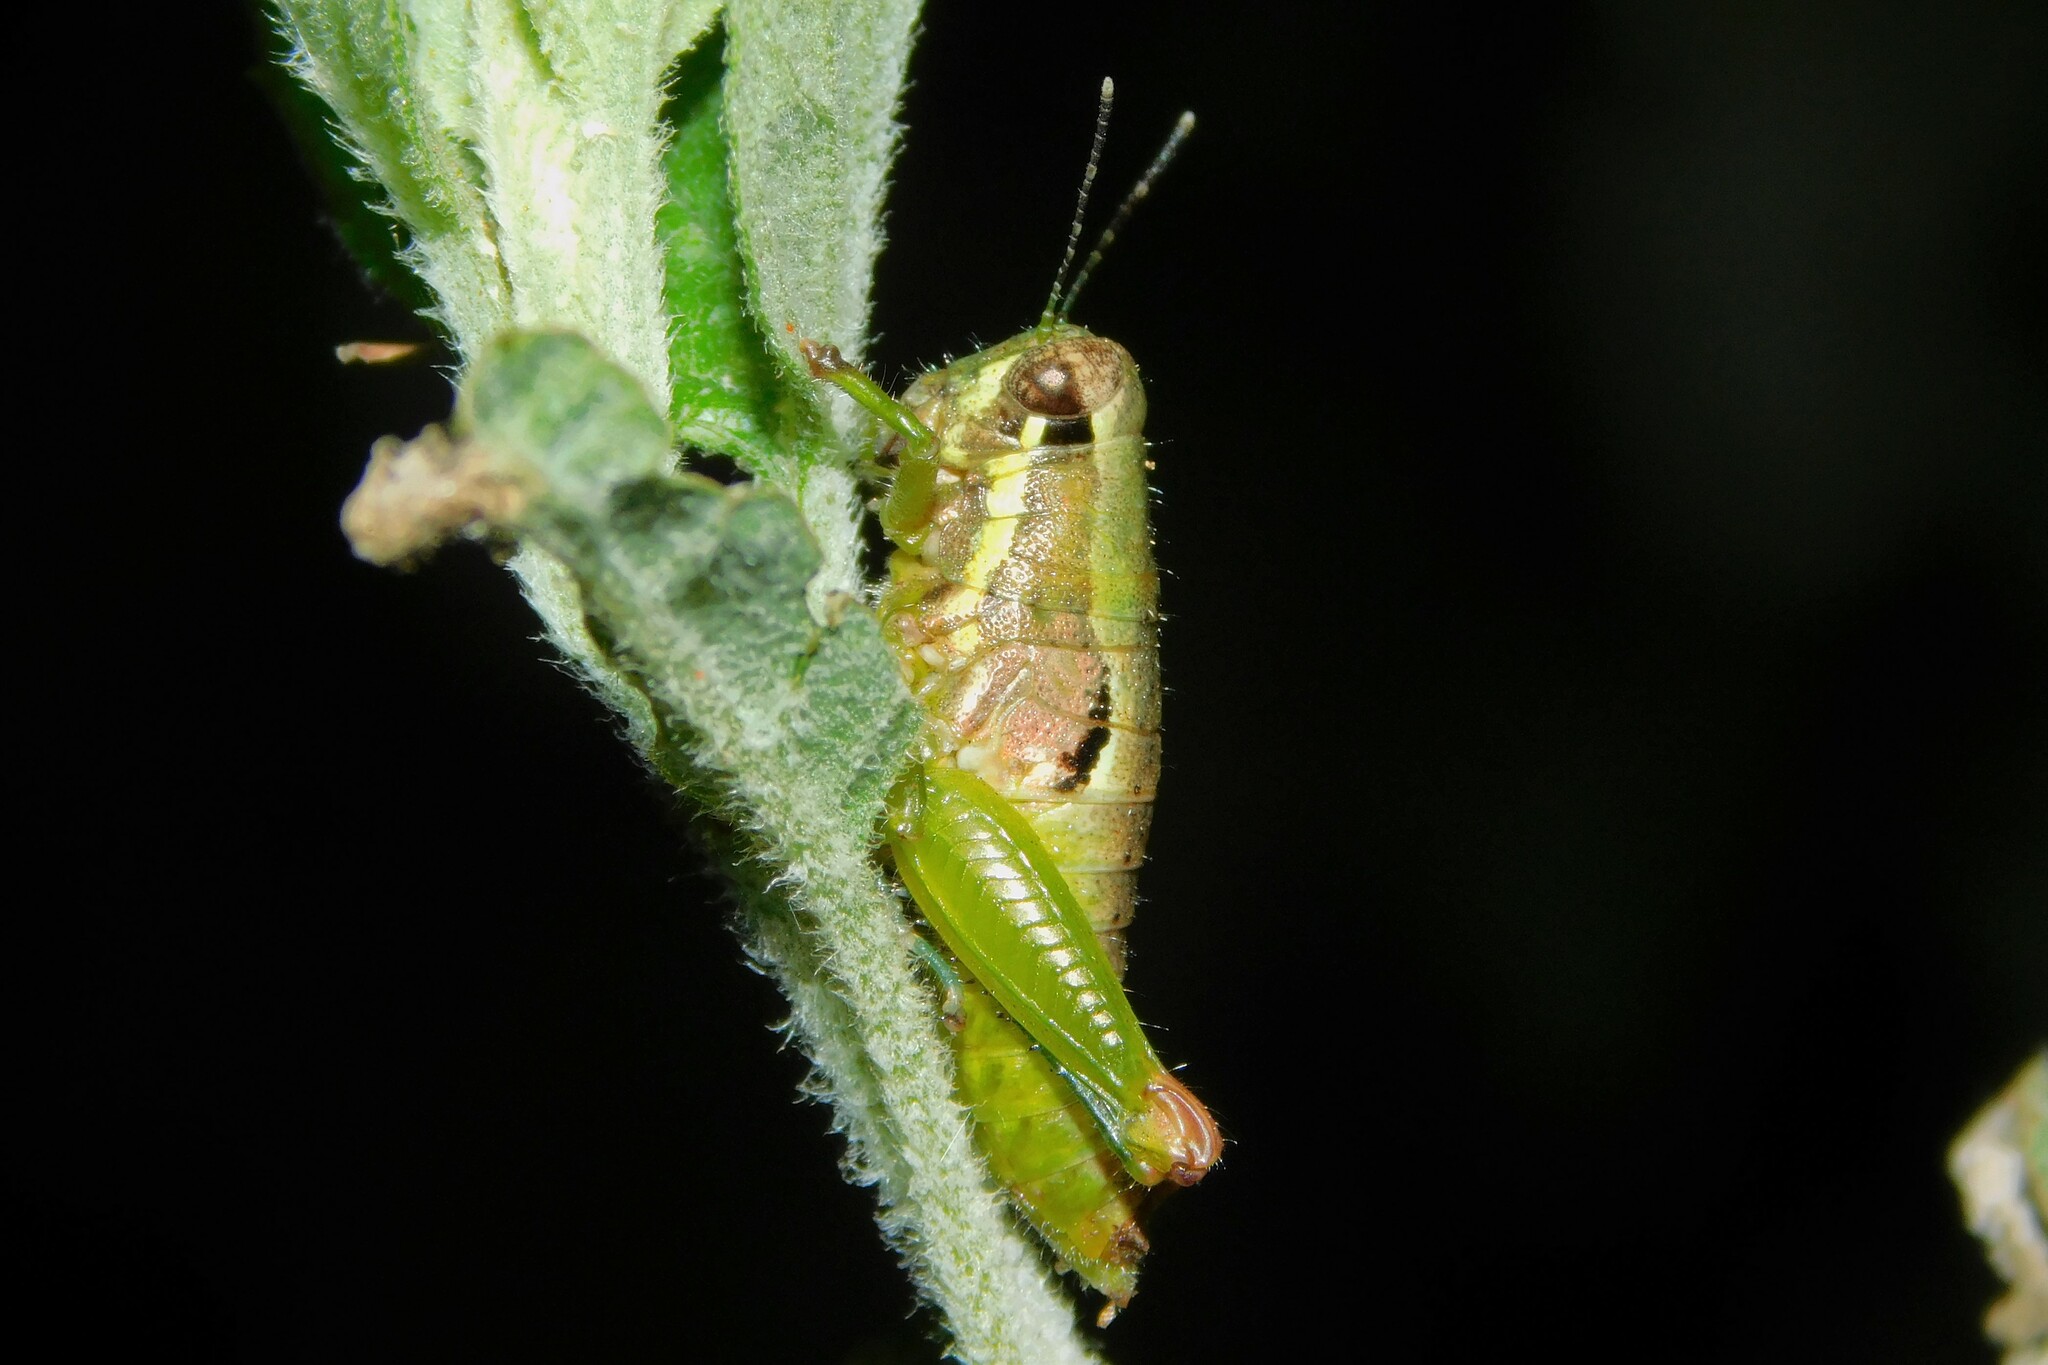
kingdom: Animalia
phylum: Arthropoda
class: Insecta
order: Orthoptera
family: Lentulidae
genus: Usambilla
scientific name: Usambilla sagonai
